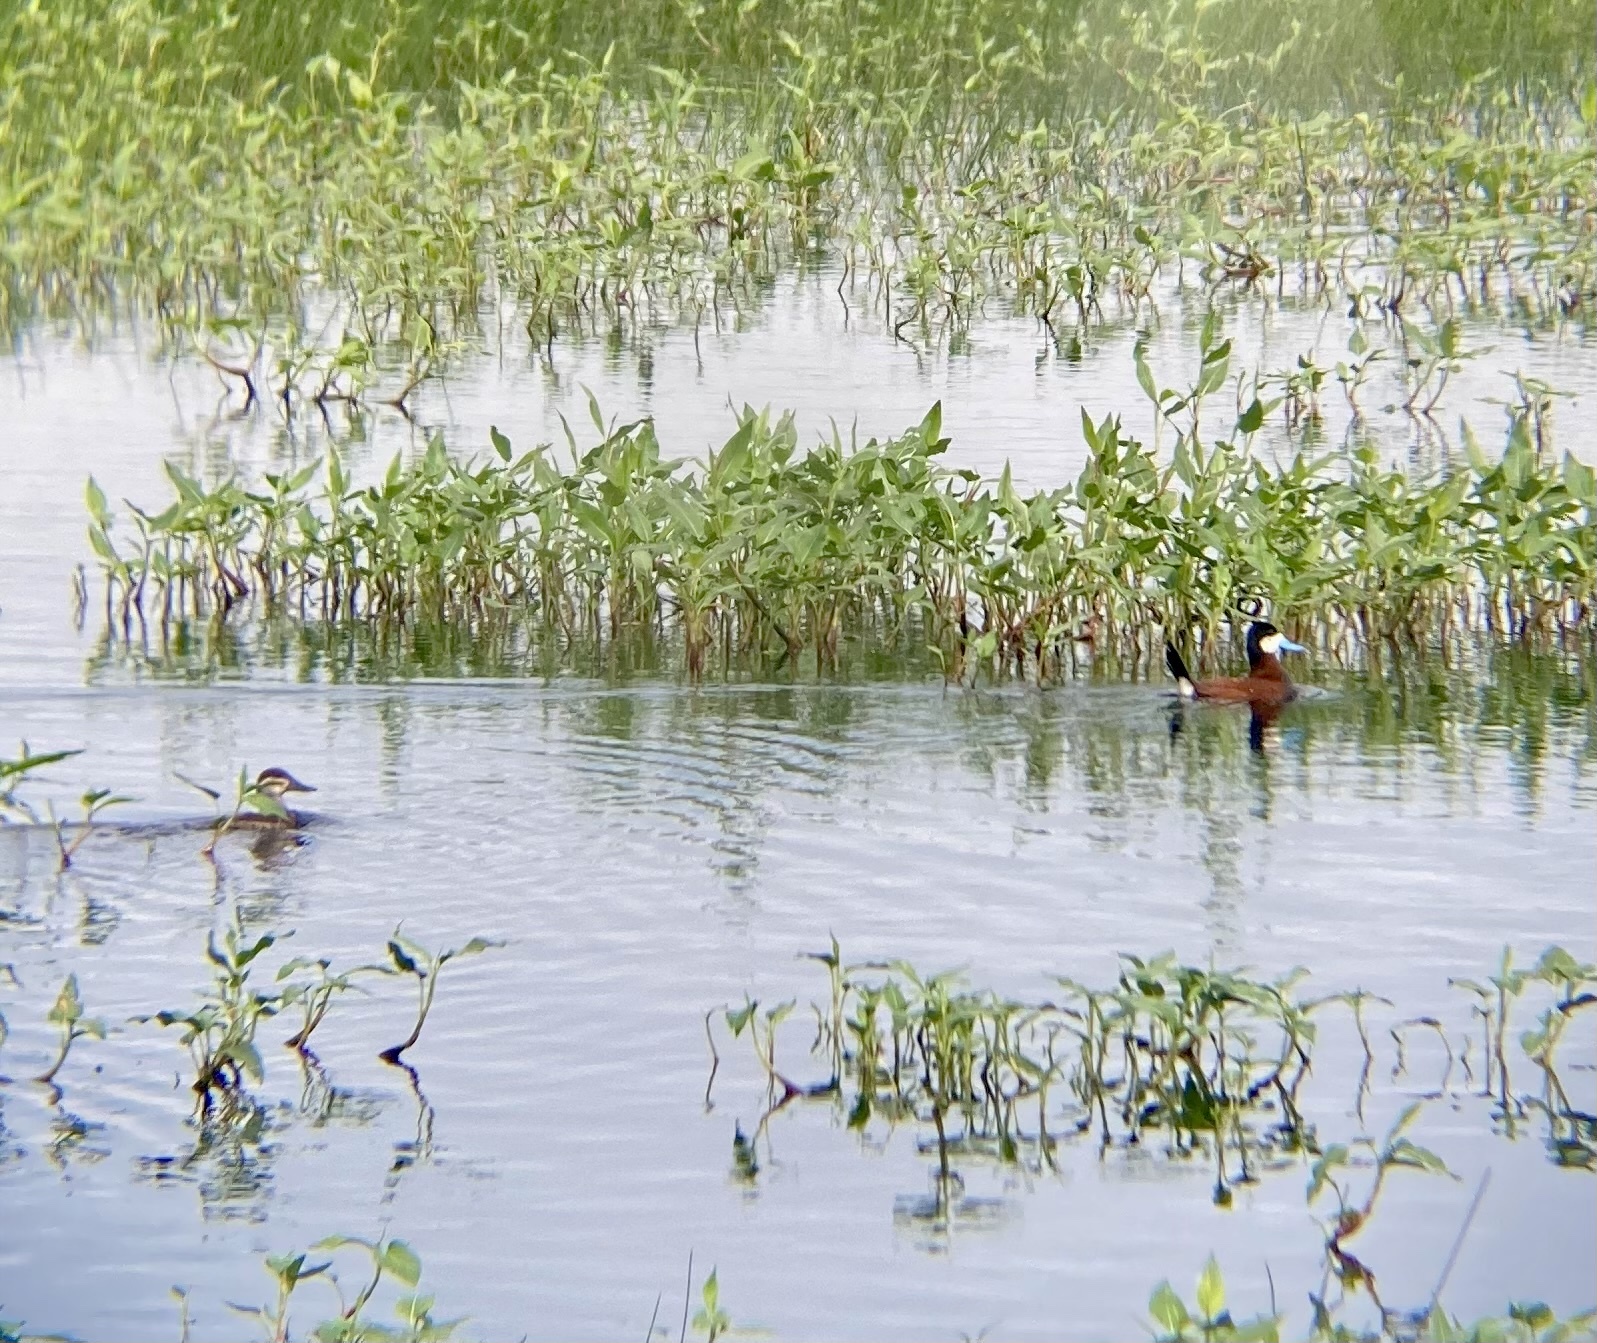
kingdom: Animalia
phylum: Chordata
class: Aves
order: Anseriformes
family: Anatidae
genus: Oxyura
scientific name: Oxyura jamaicensis
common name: Ruddy duck
